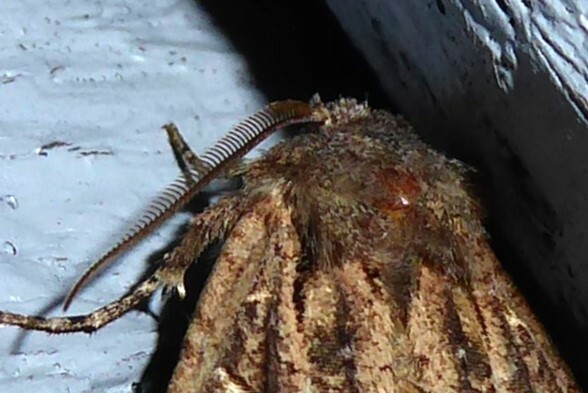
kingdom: Animalia
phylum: Arthropoda
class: Insecta
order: Lepidoptera
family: Noctuidae
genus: Ichneutica
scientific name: Ichneutica skelloni
